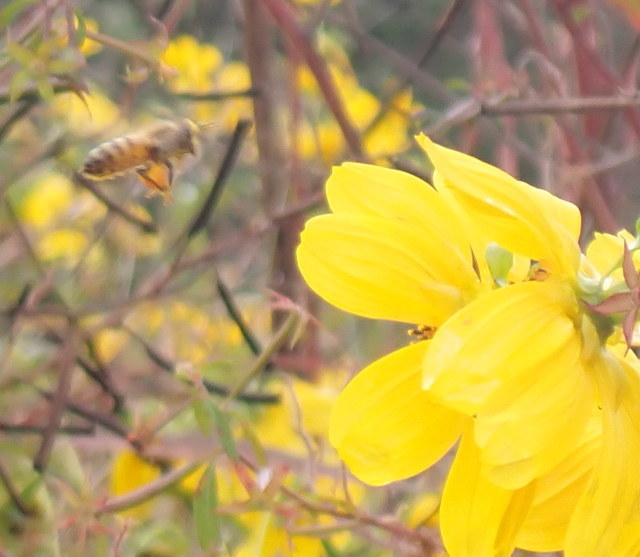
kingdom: Animalia
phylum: Arthropoda
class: Insecta
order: Hymenoptera
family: Apidae
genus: Apis
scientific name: Apis mellifera
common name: Honey bee
